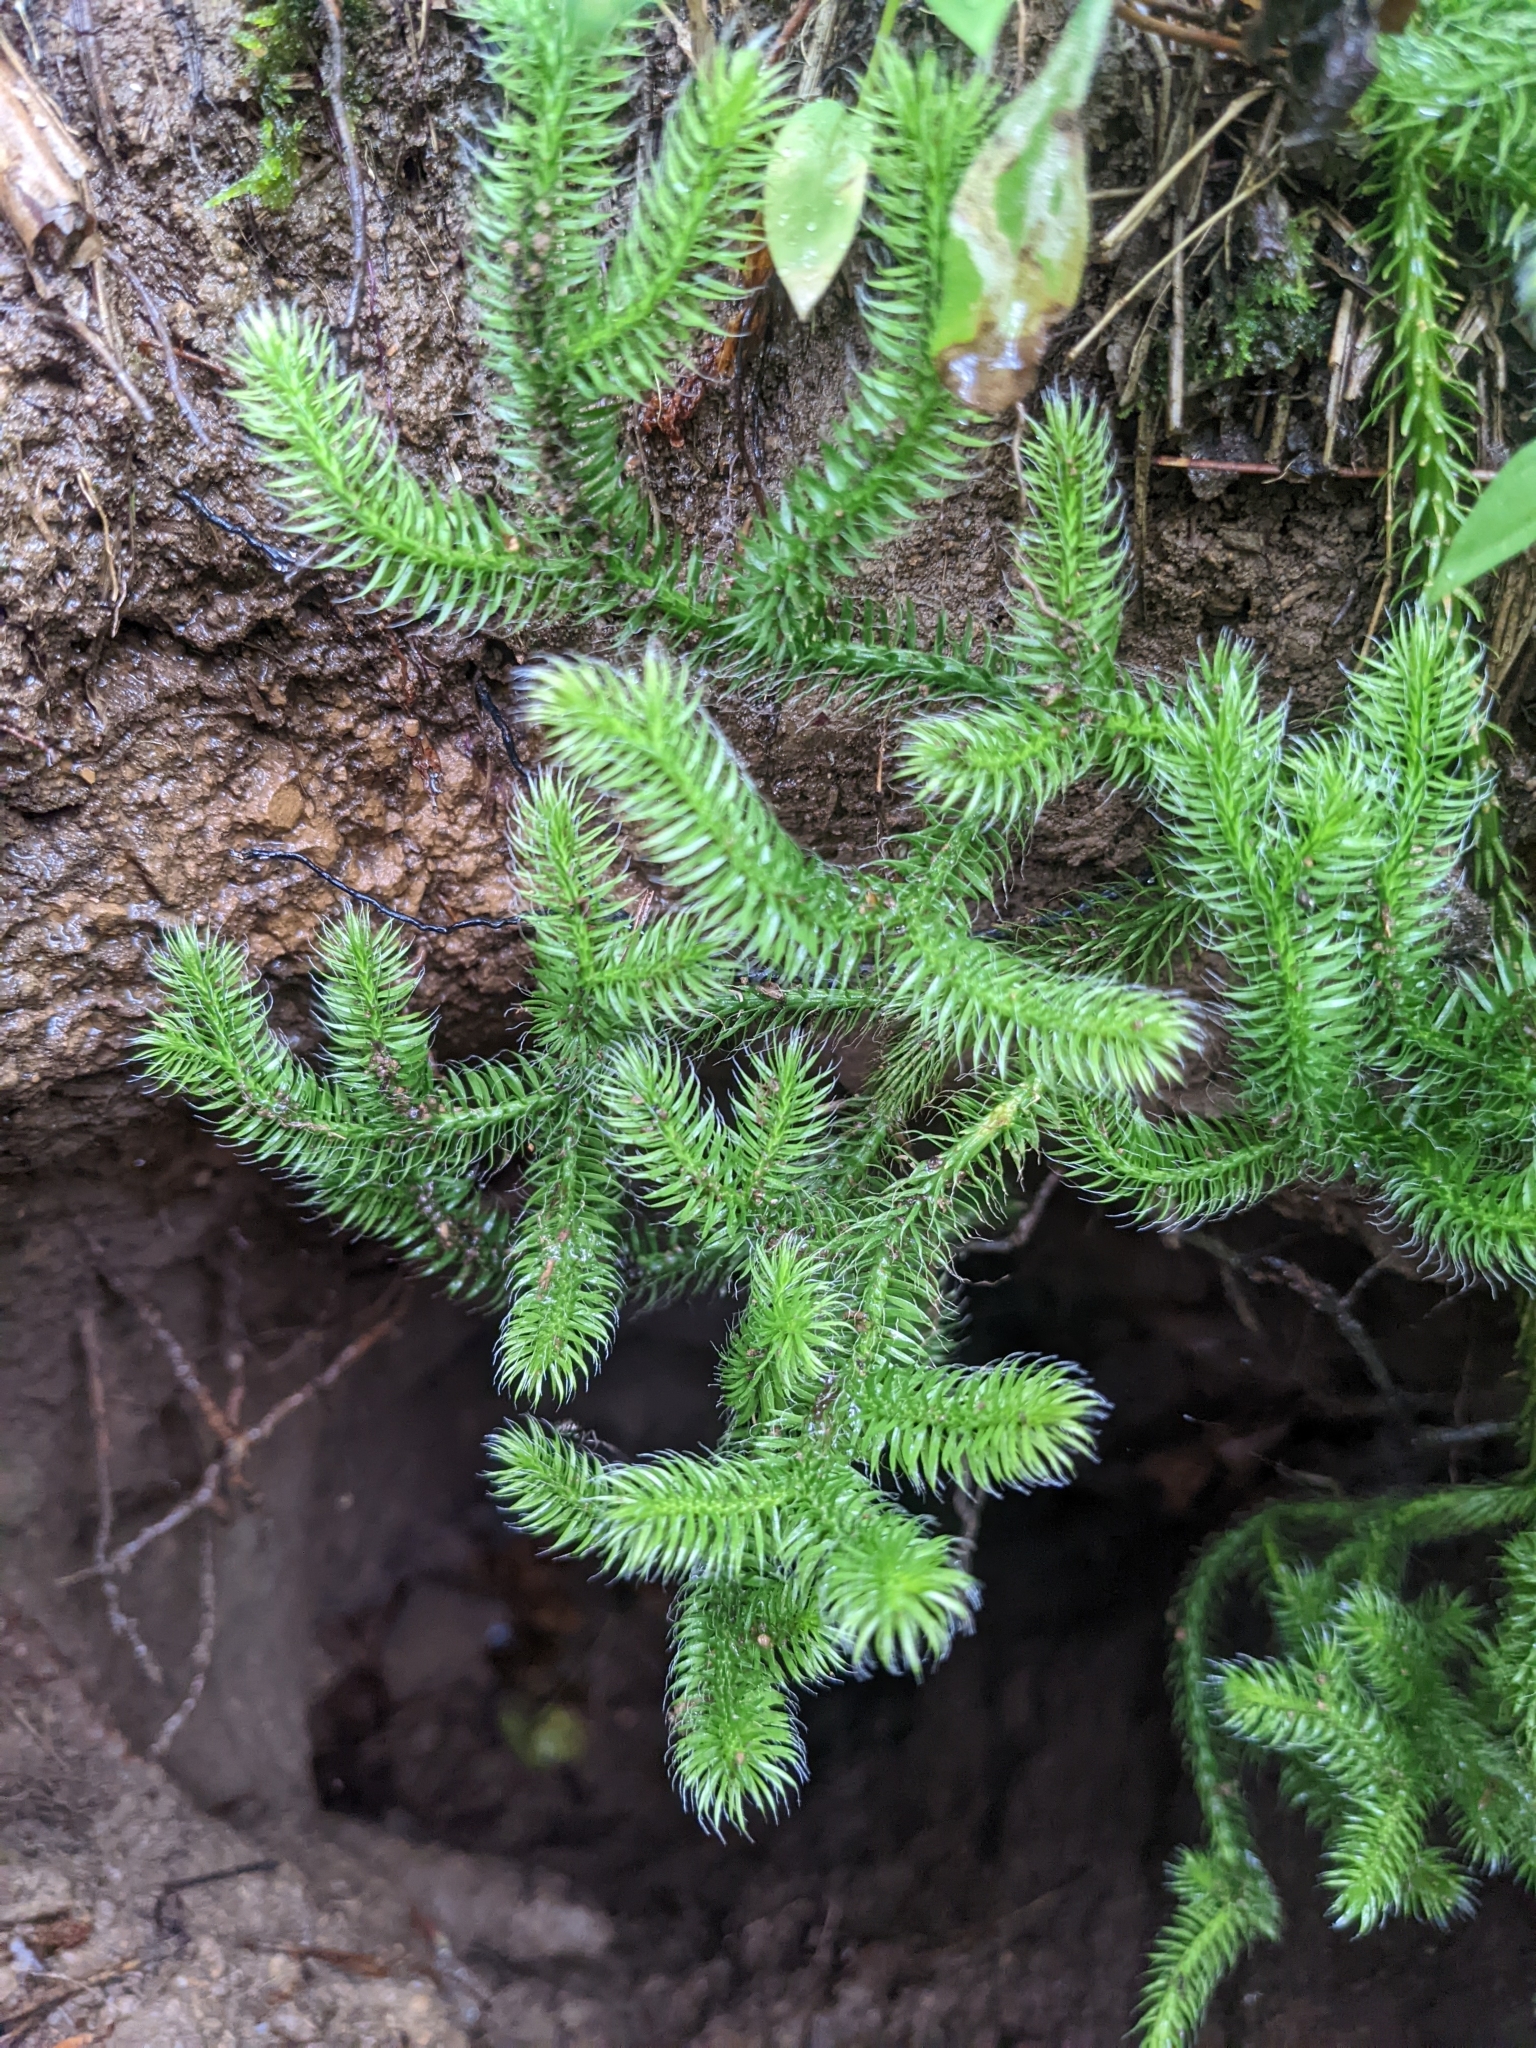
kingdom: Plantae
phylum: Tracheophyta
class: Lycopodiopsida
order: Lycopodiales
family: Lycopodiaceae
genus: Lycopodium
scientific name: Lycopodium clavatum
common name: Stag's-horn clubmoss
